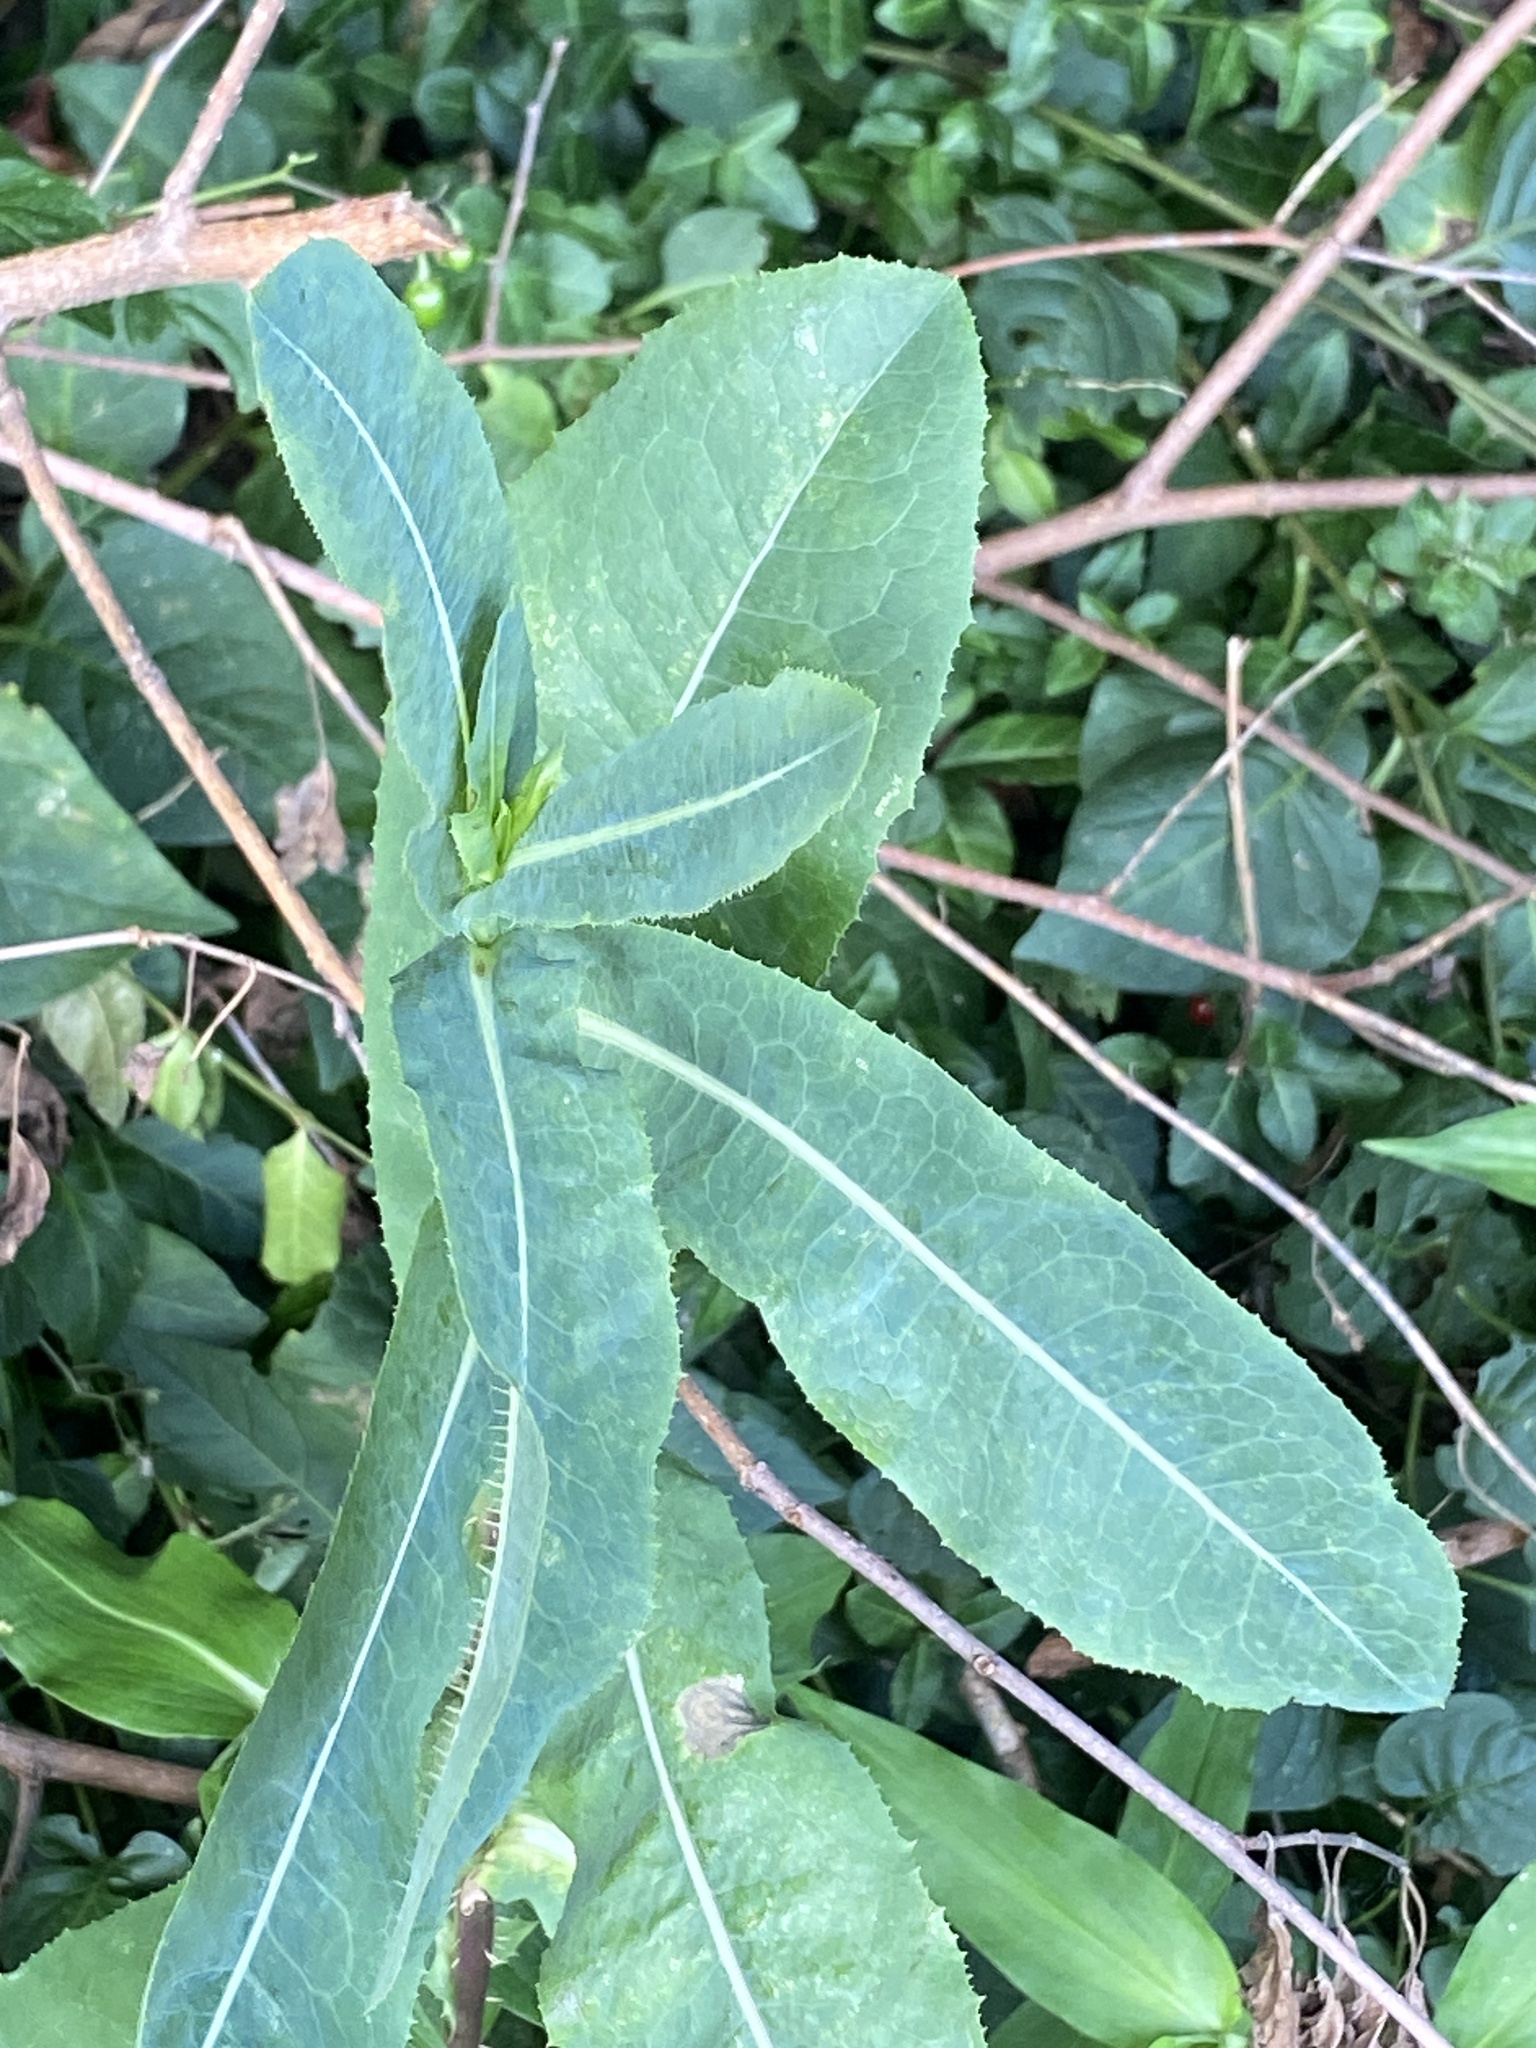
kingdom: Plantae
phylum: Tracheophyta
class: Magnoliopsida
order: Asterales
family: Asteraceae
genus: Lactuca
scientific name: Lactuca serriola
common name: Prickly lettuce
